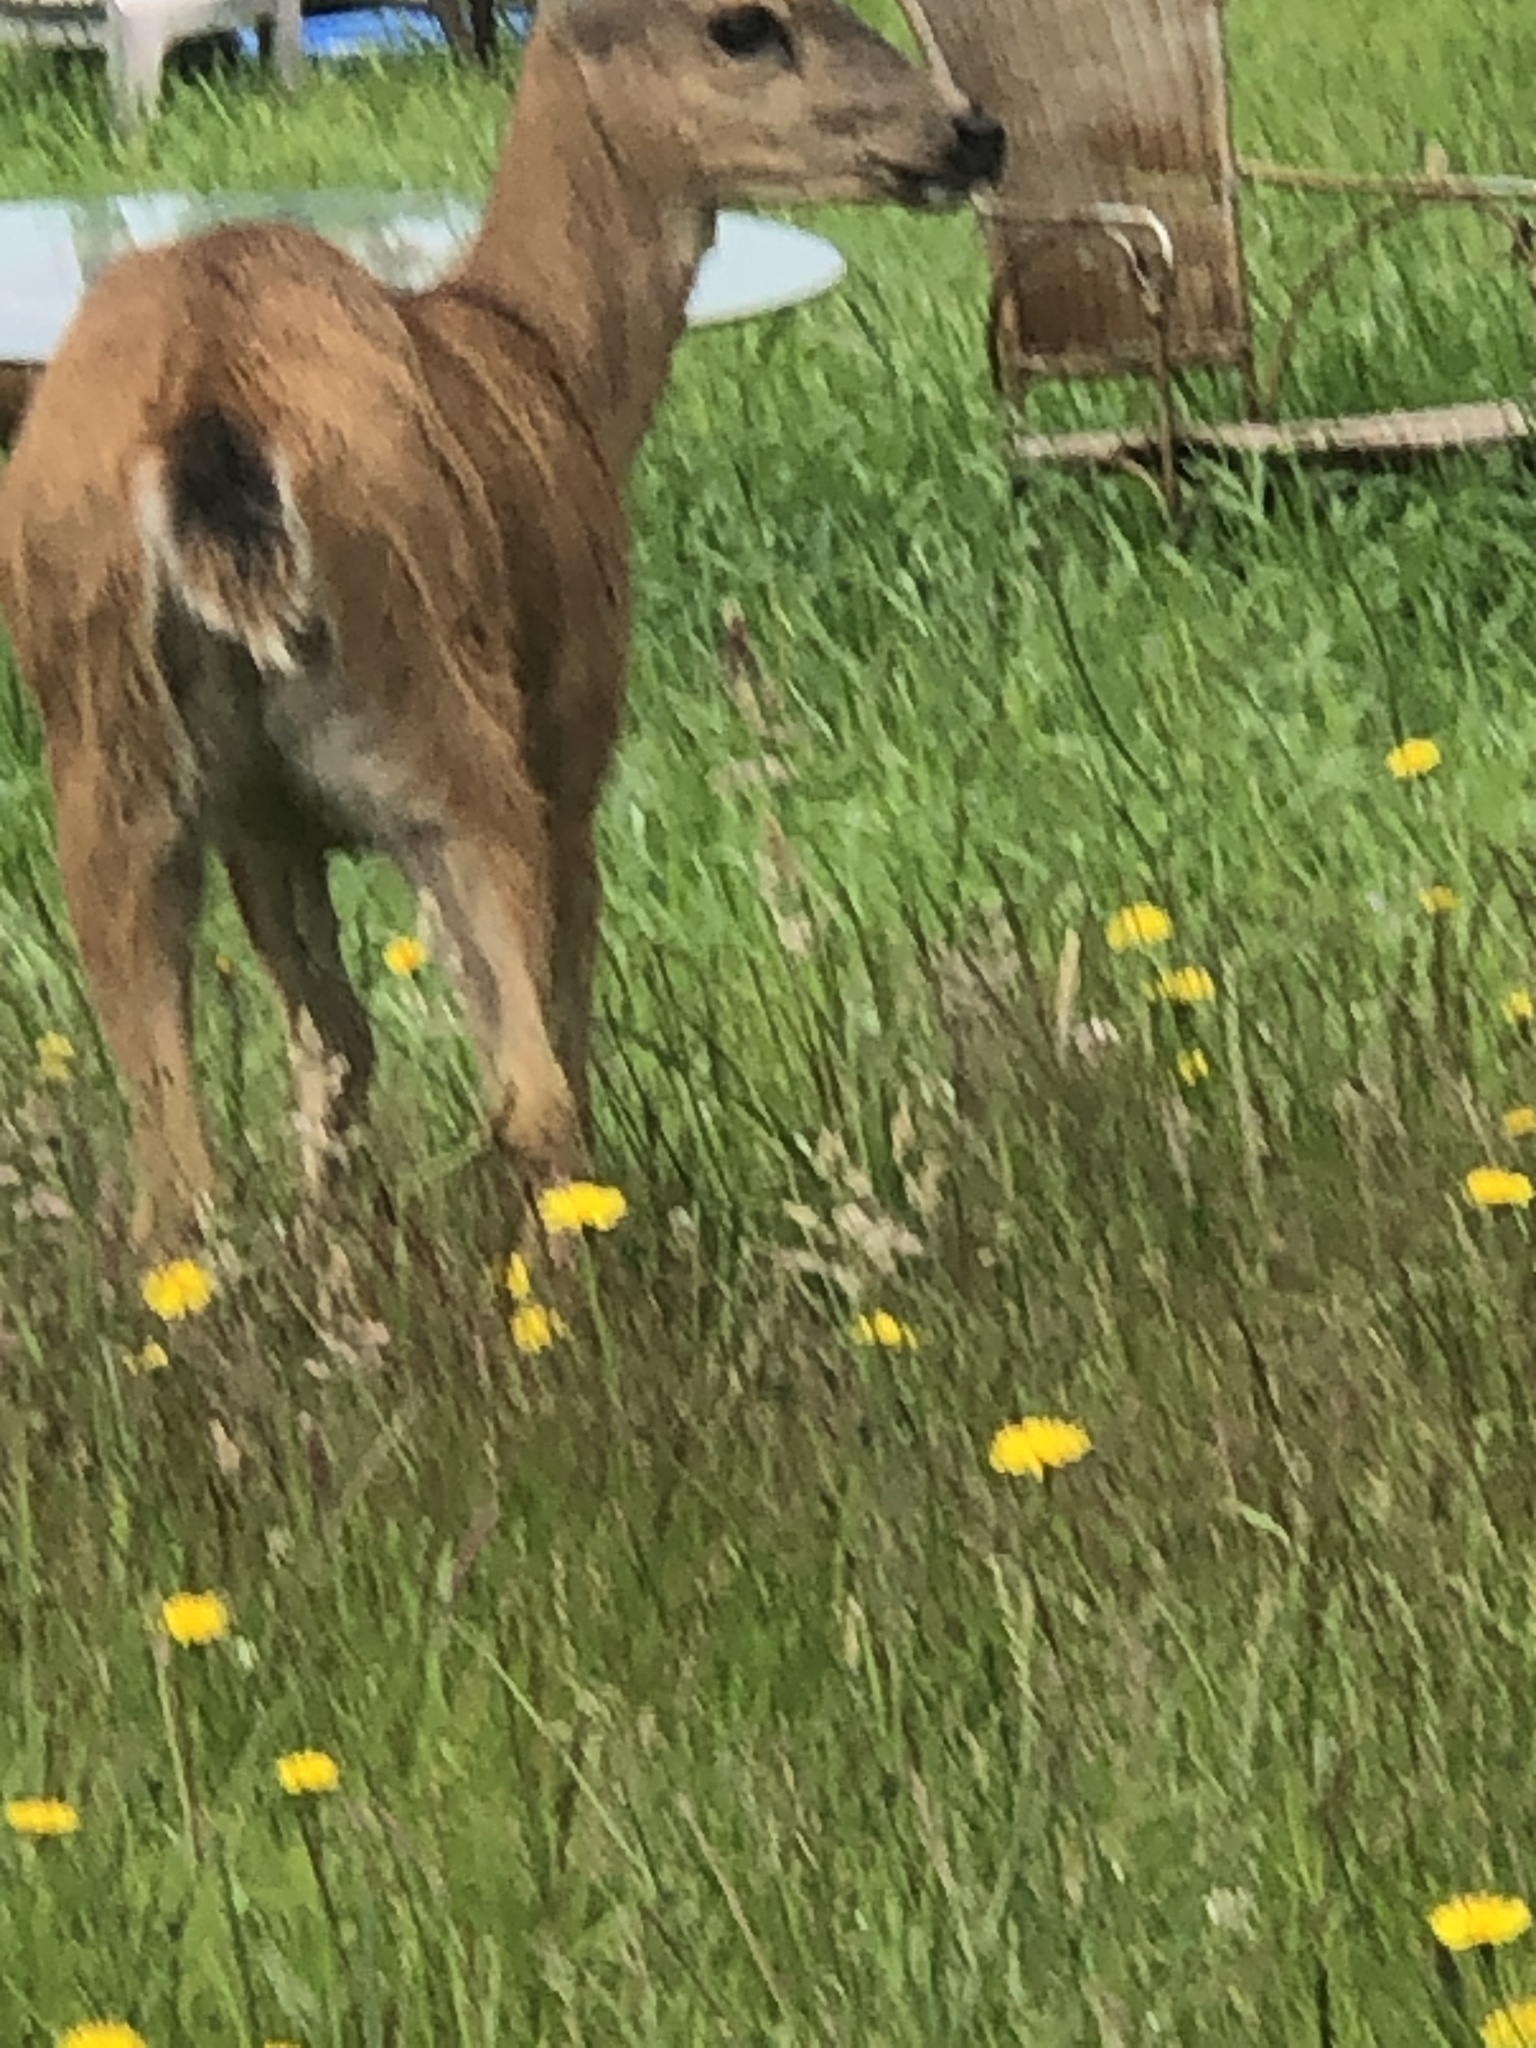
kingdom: Animalia
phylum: Chordata
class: Mammalia
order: Artiodactyla
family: Cervidae
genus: Odocoileus
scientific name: Odocoileus hemionus
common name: Mule deer
